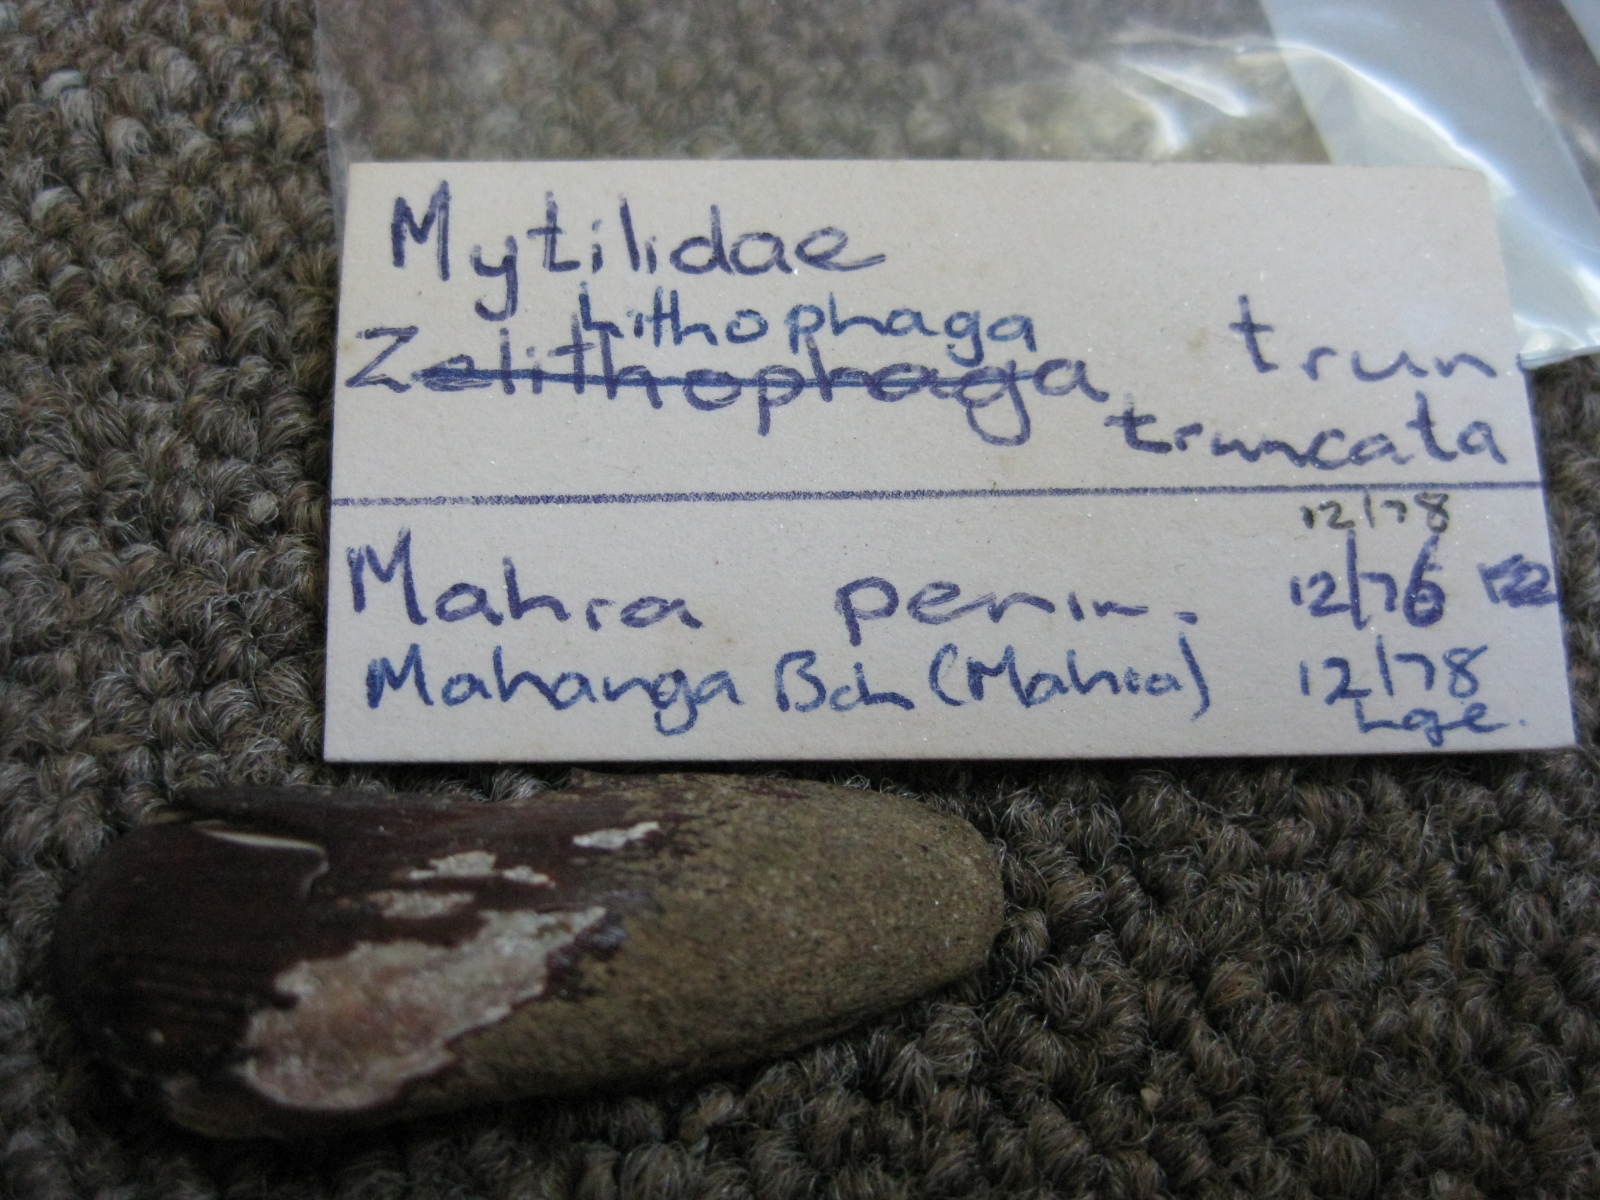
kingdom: Animalia
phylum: Mollusca
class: Bivalvia
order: Mytilida
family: Mytilidae
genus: Zelithophaga
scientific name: Zelithophaga truncata
